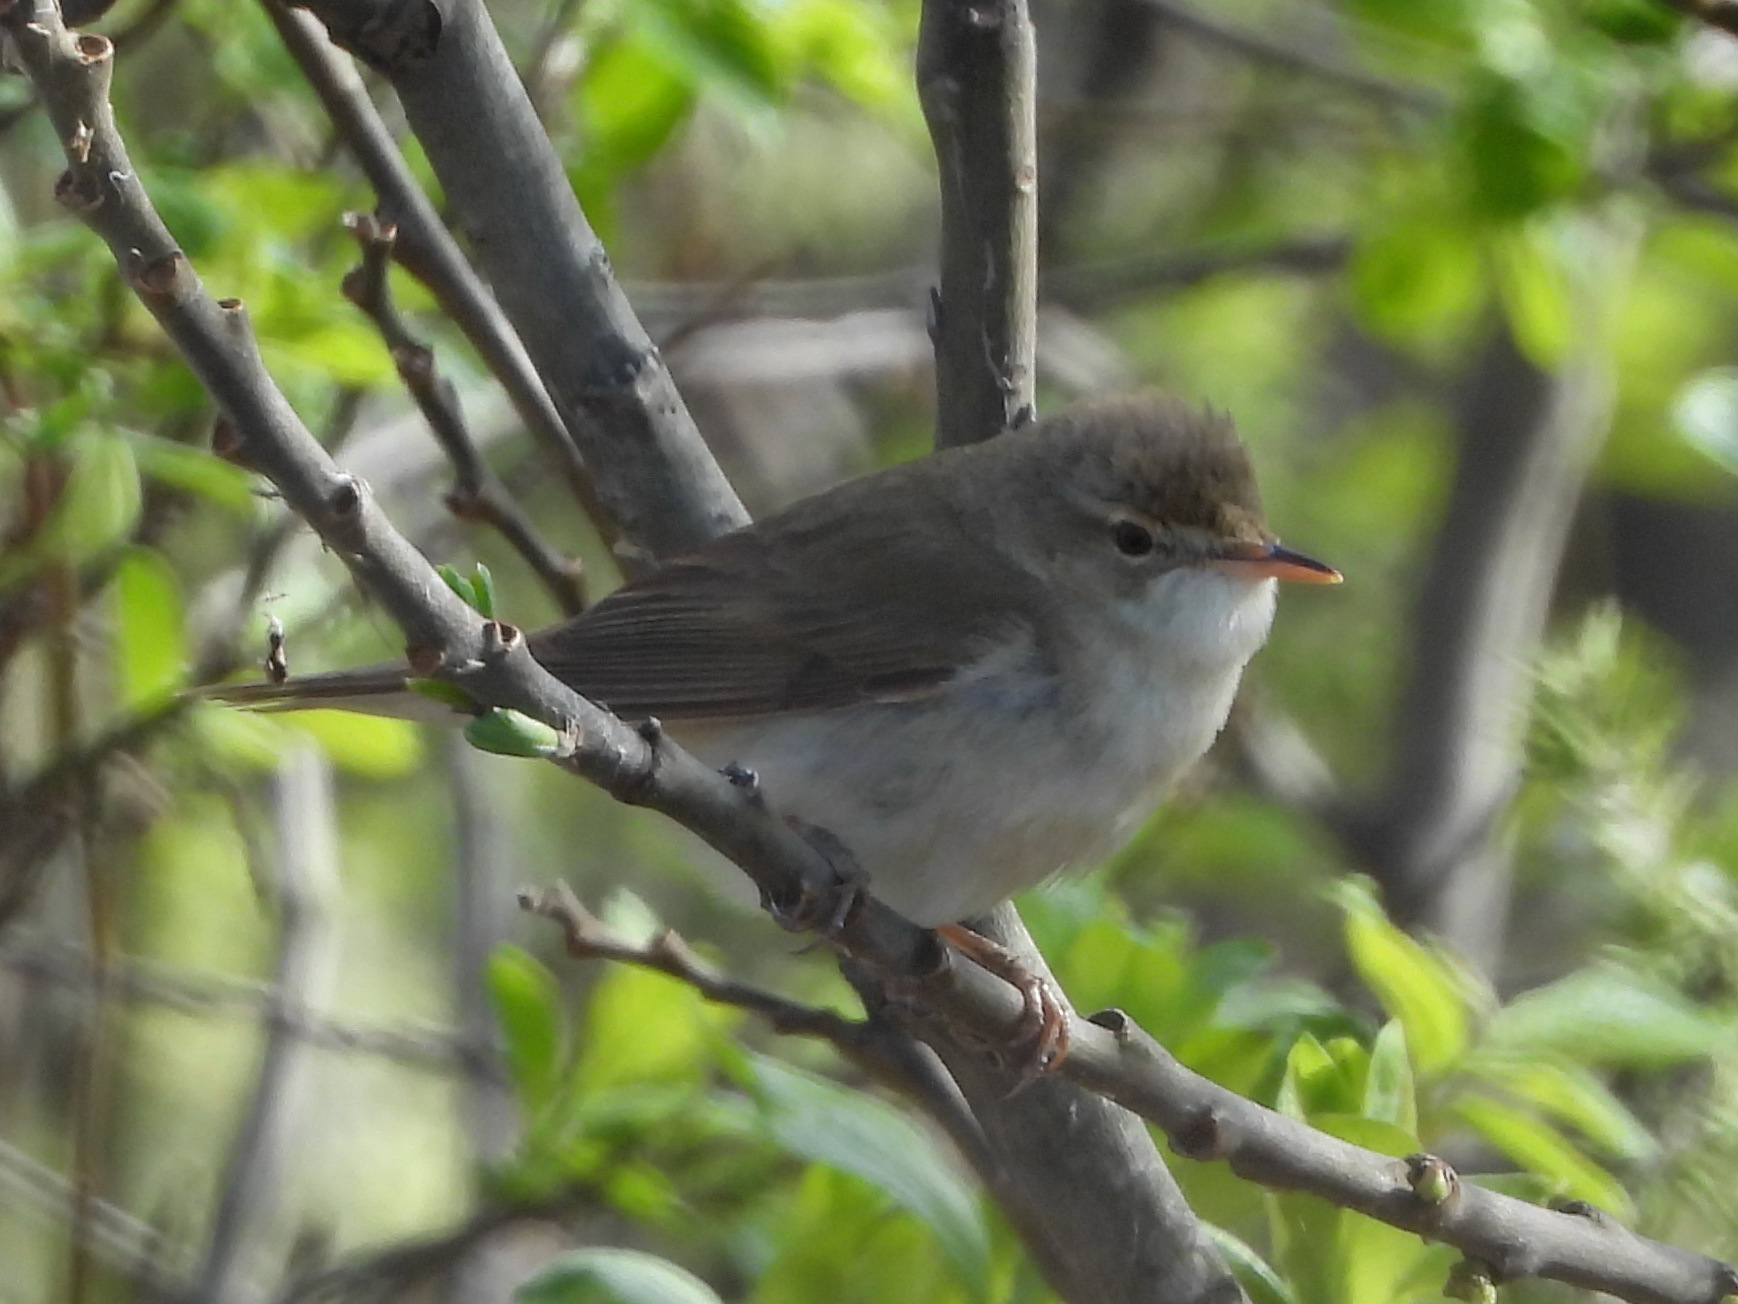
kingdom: Animalia
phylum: Chordata
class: Aves
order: Passeriformes
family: Acrocephalidae
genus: Acrocephalus
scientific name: Acrocephalus palustris
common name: Marsh warbler
